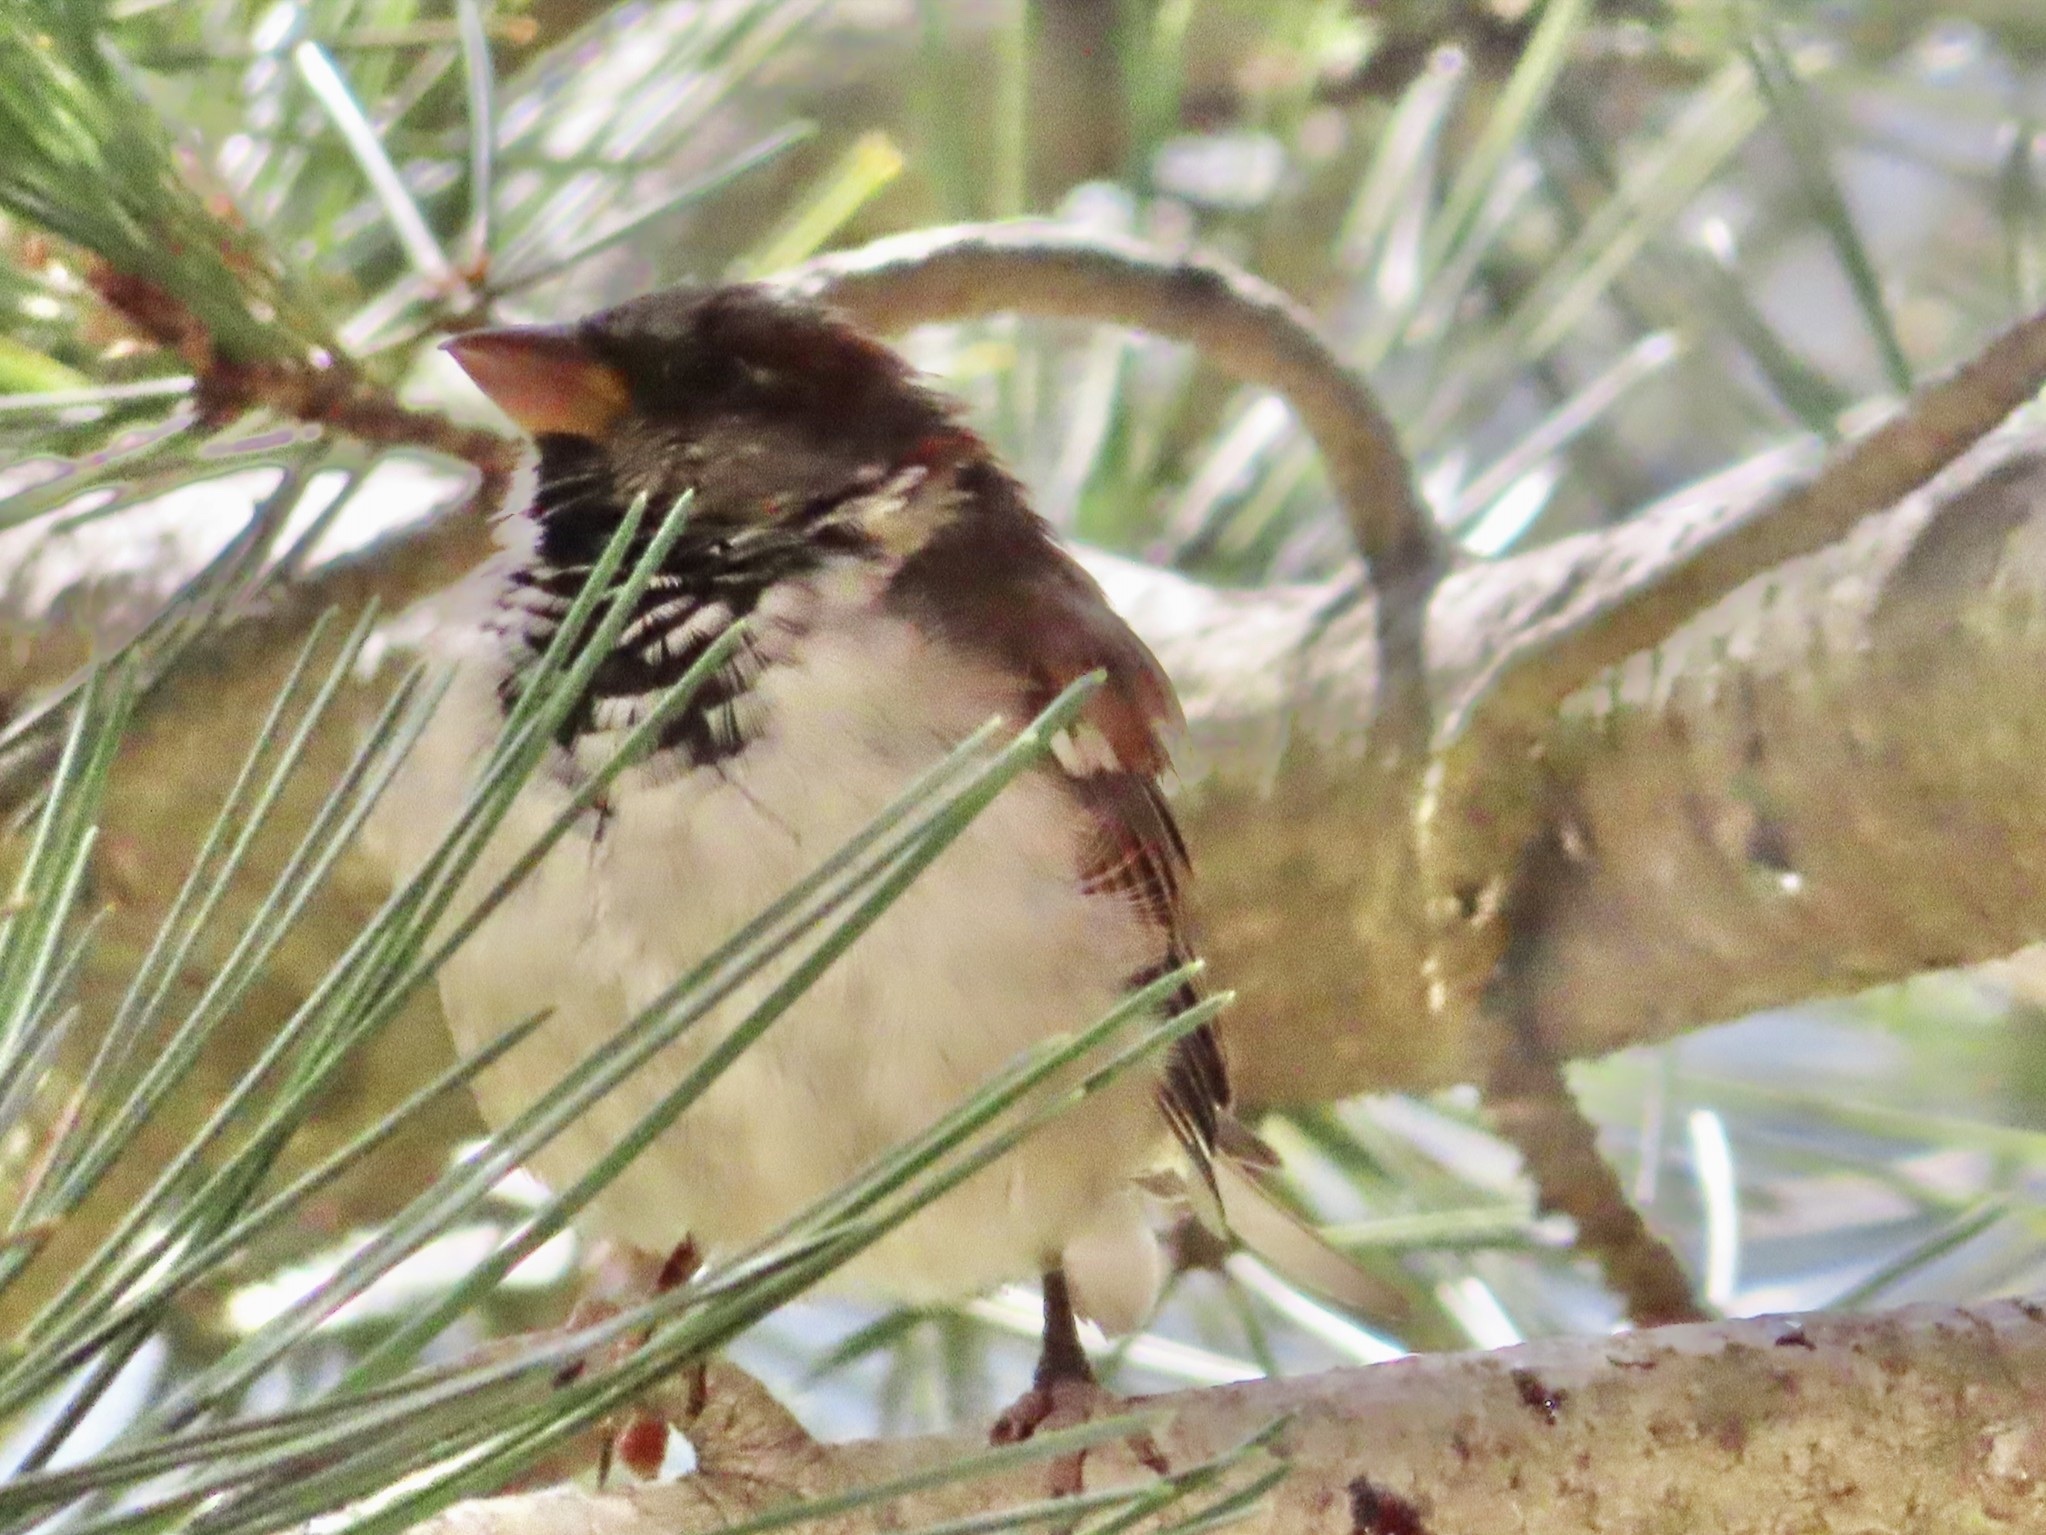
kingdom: Animalia
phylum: Chordata
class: Aves
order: Passeriformes
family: Passeridae
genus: Passer
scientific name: Passer domesticus
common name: House sparrow
